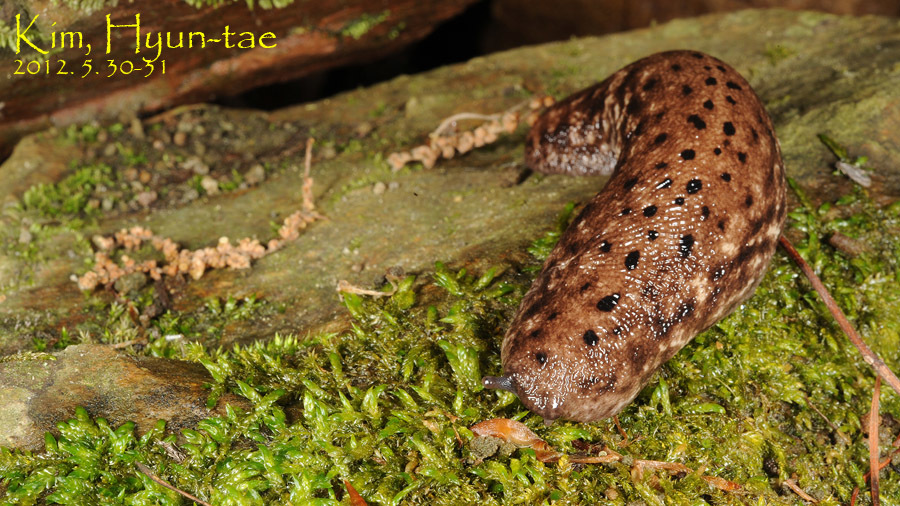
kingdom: Animalia
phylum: Mollusca
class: Gastropoda
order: Stylommatophora
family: Philomycidae
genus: Meghimatium
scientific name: Meghimatium fruhstorferi
